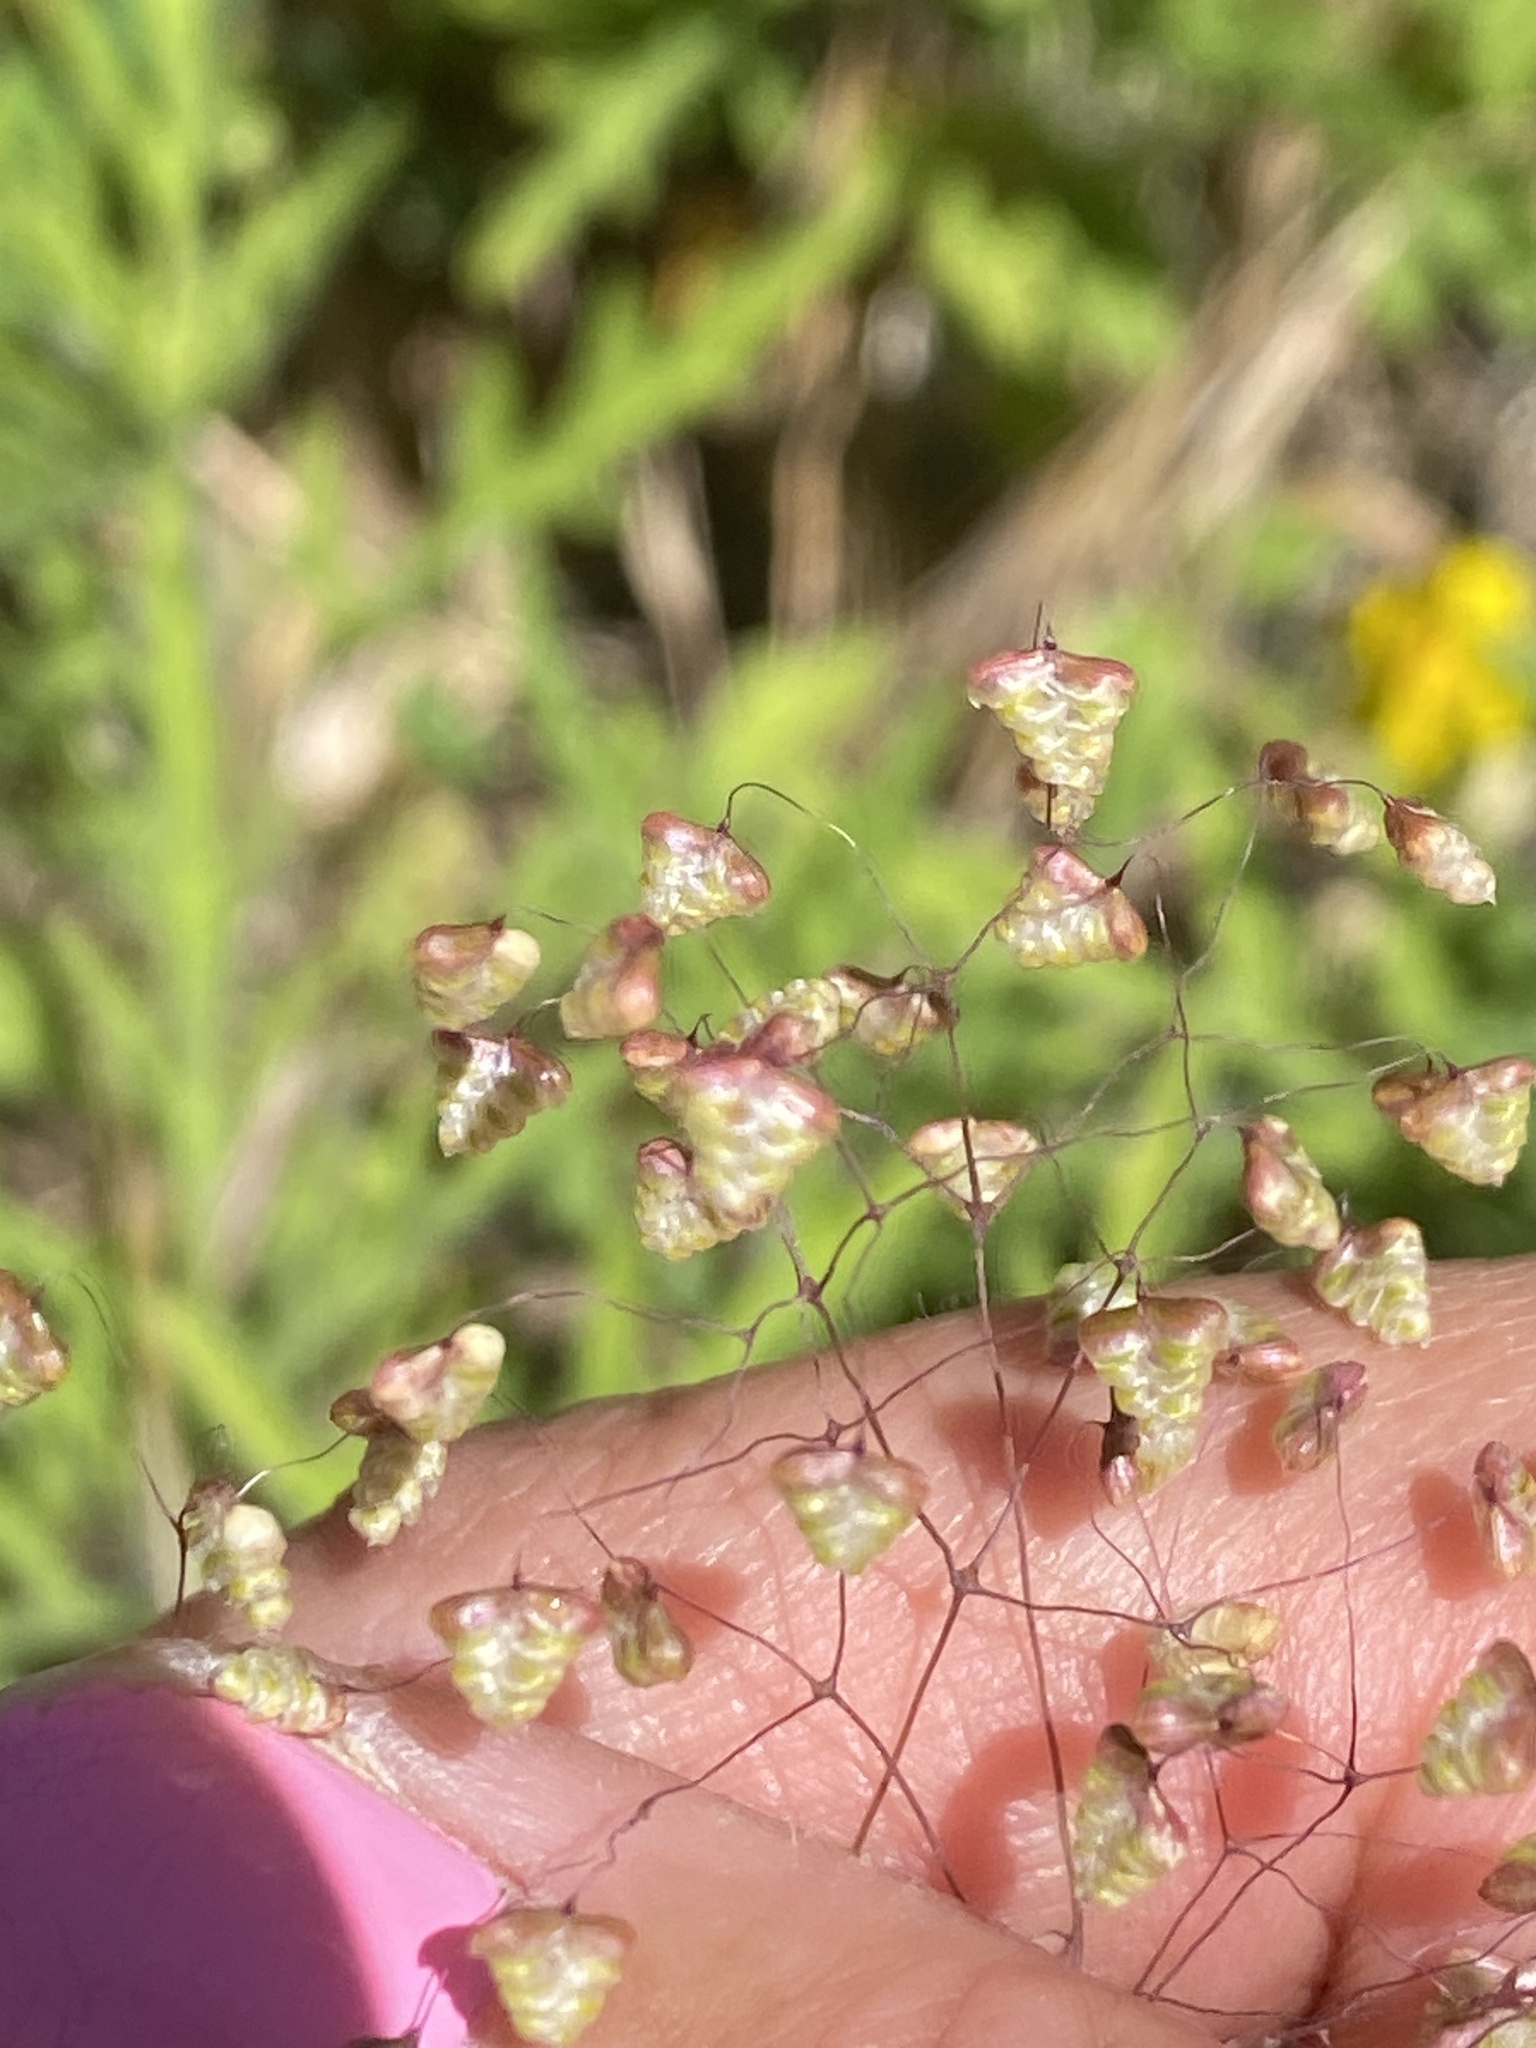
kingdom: Plantae
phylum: Tracheophyta
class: Liliopsida
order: Poales
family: Poaceae
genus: Briza
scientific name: Briza minor
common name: Lesser quaking-grass
